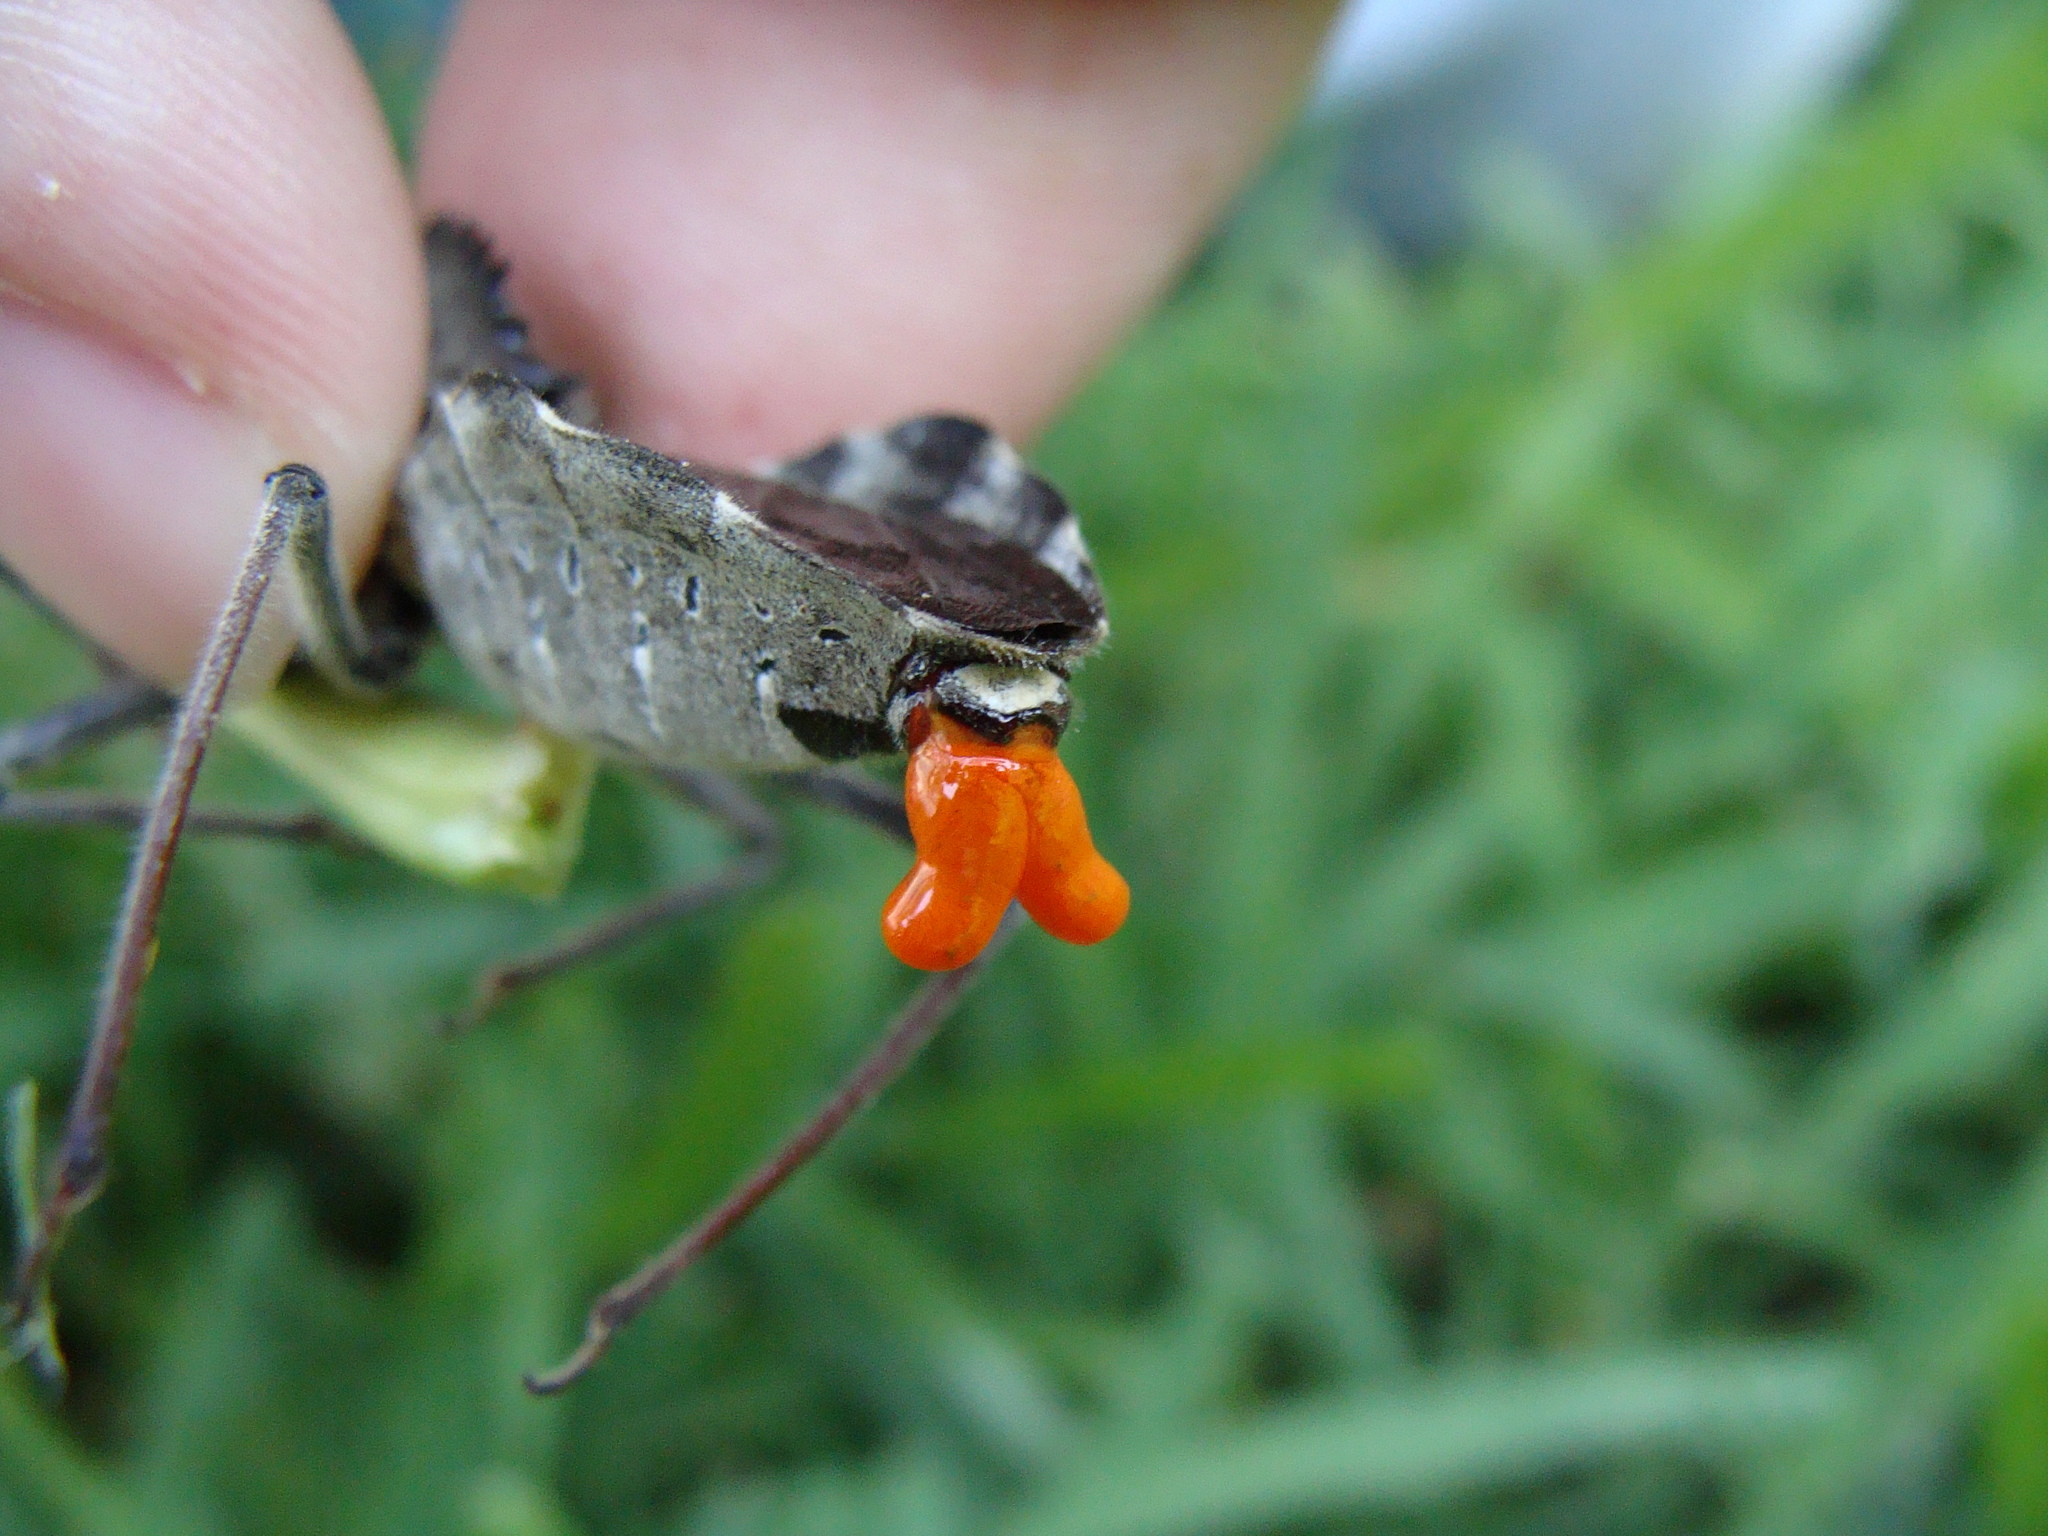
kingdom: Animalia
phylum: Arthropoda
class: Insecta
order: Hemiptera
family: Reduviidae
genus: Arilus
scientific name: Arilus cristatus
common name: North american wheel bug
